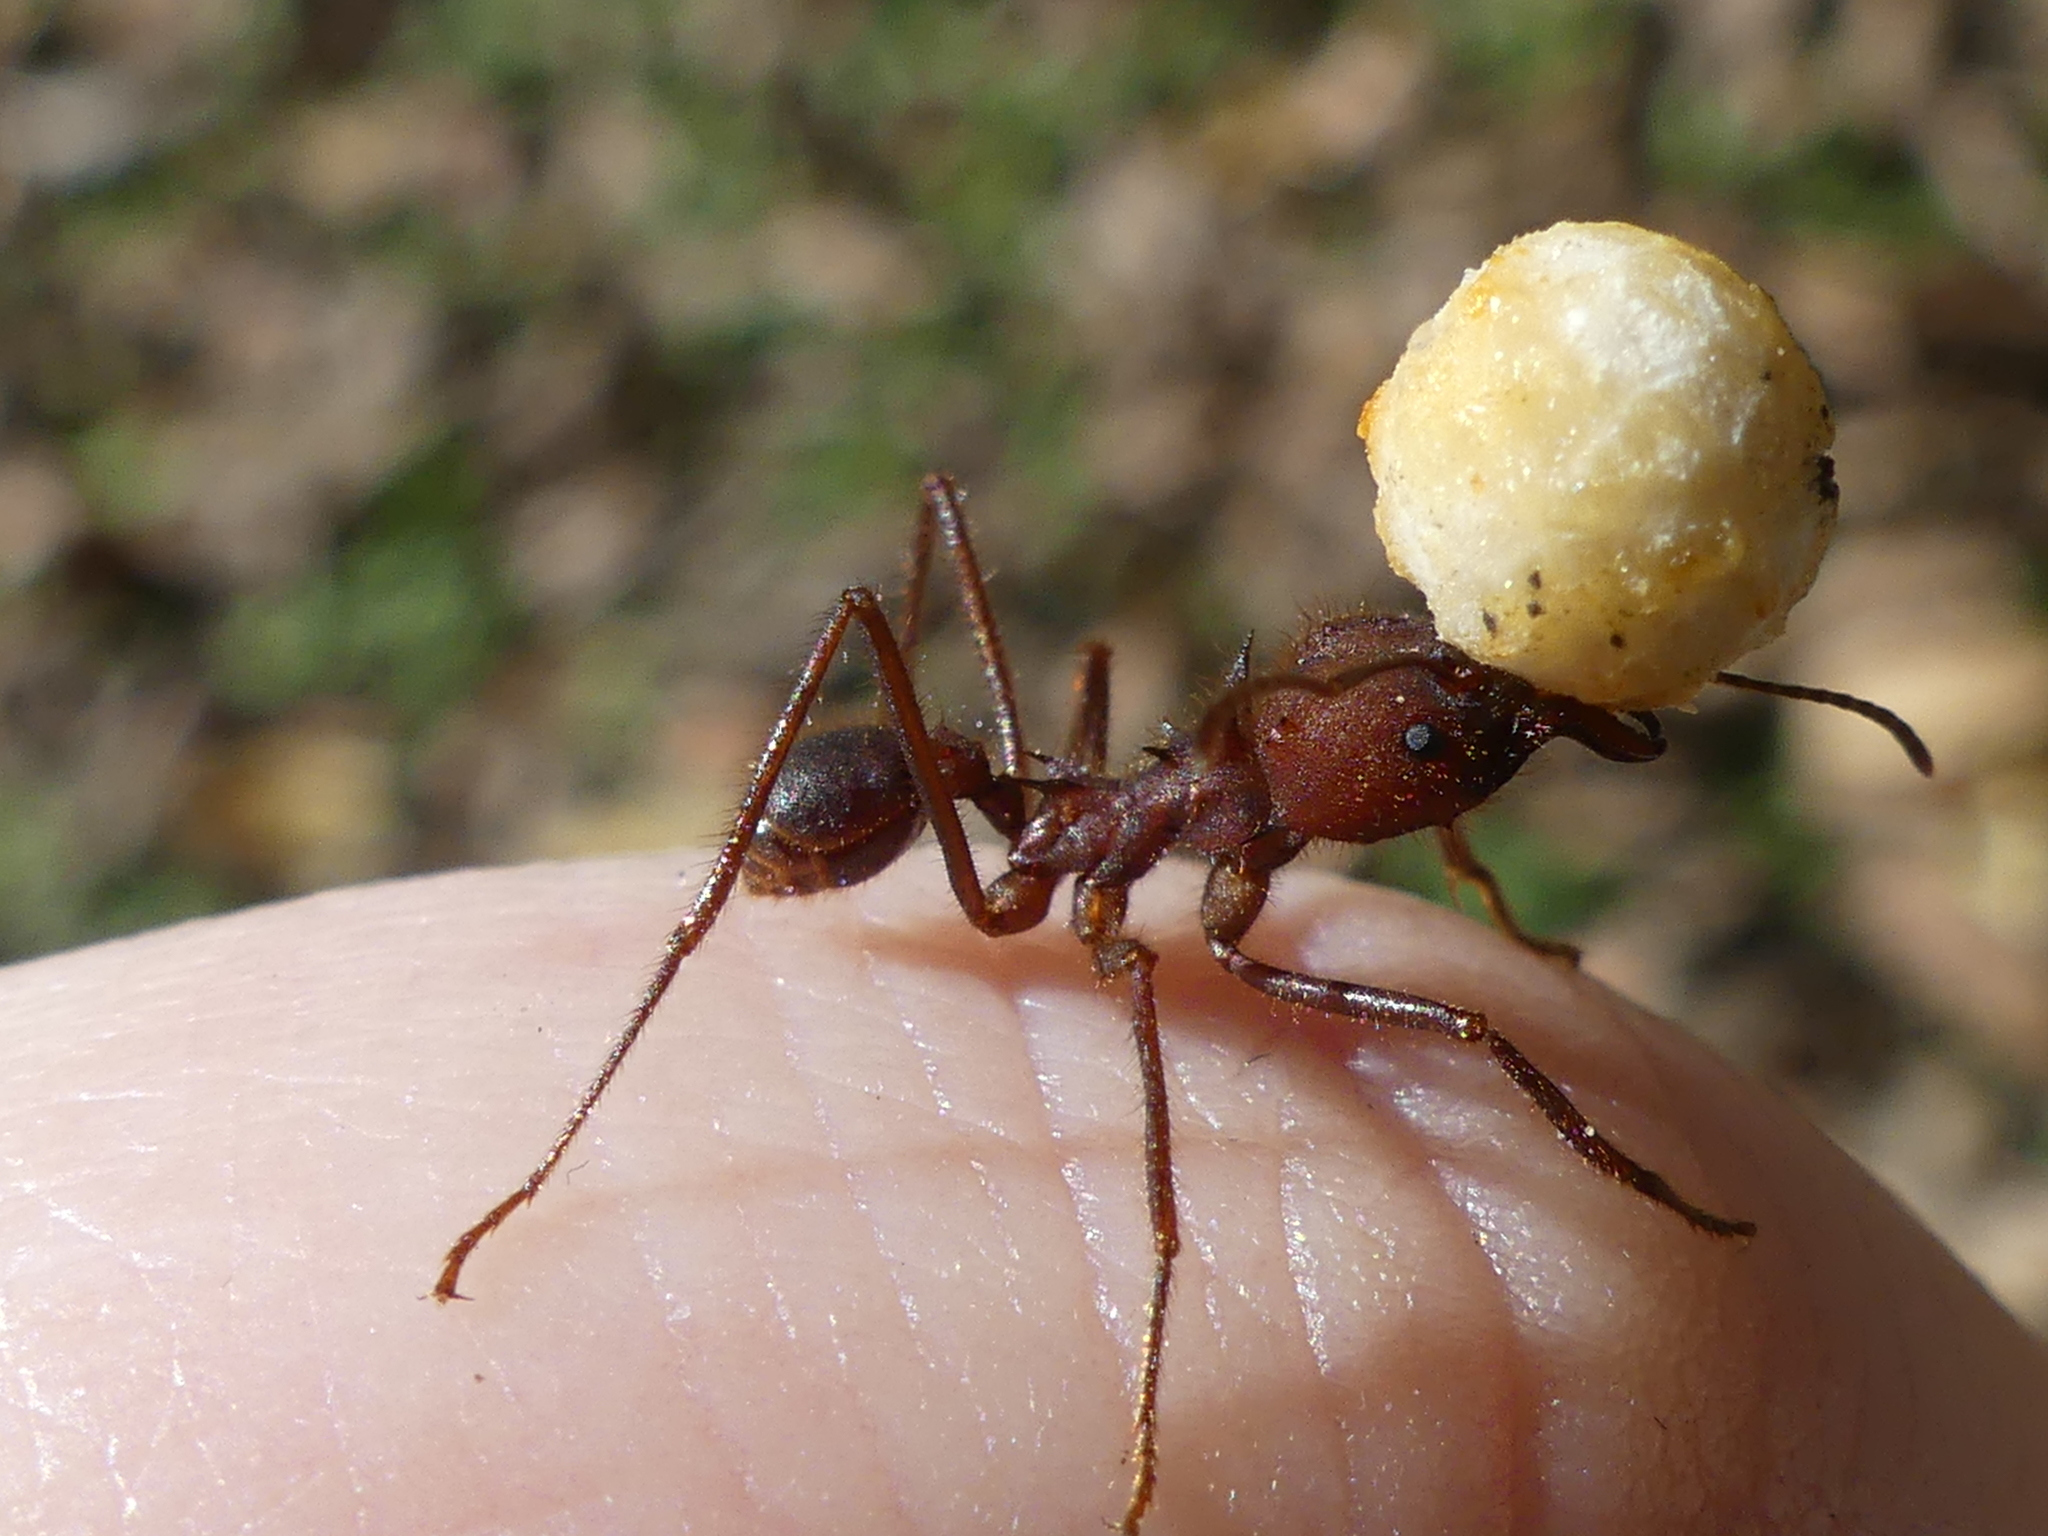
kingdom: Animalia
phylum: Arthropoda
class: Insecta
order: Hymenoptera
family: Formicidae
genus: Atta
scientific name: Atta texana
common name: Texas leafcutting ant
